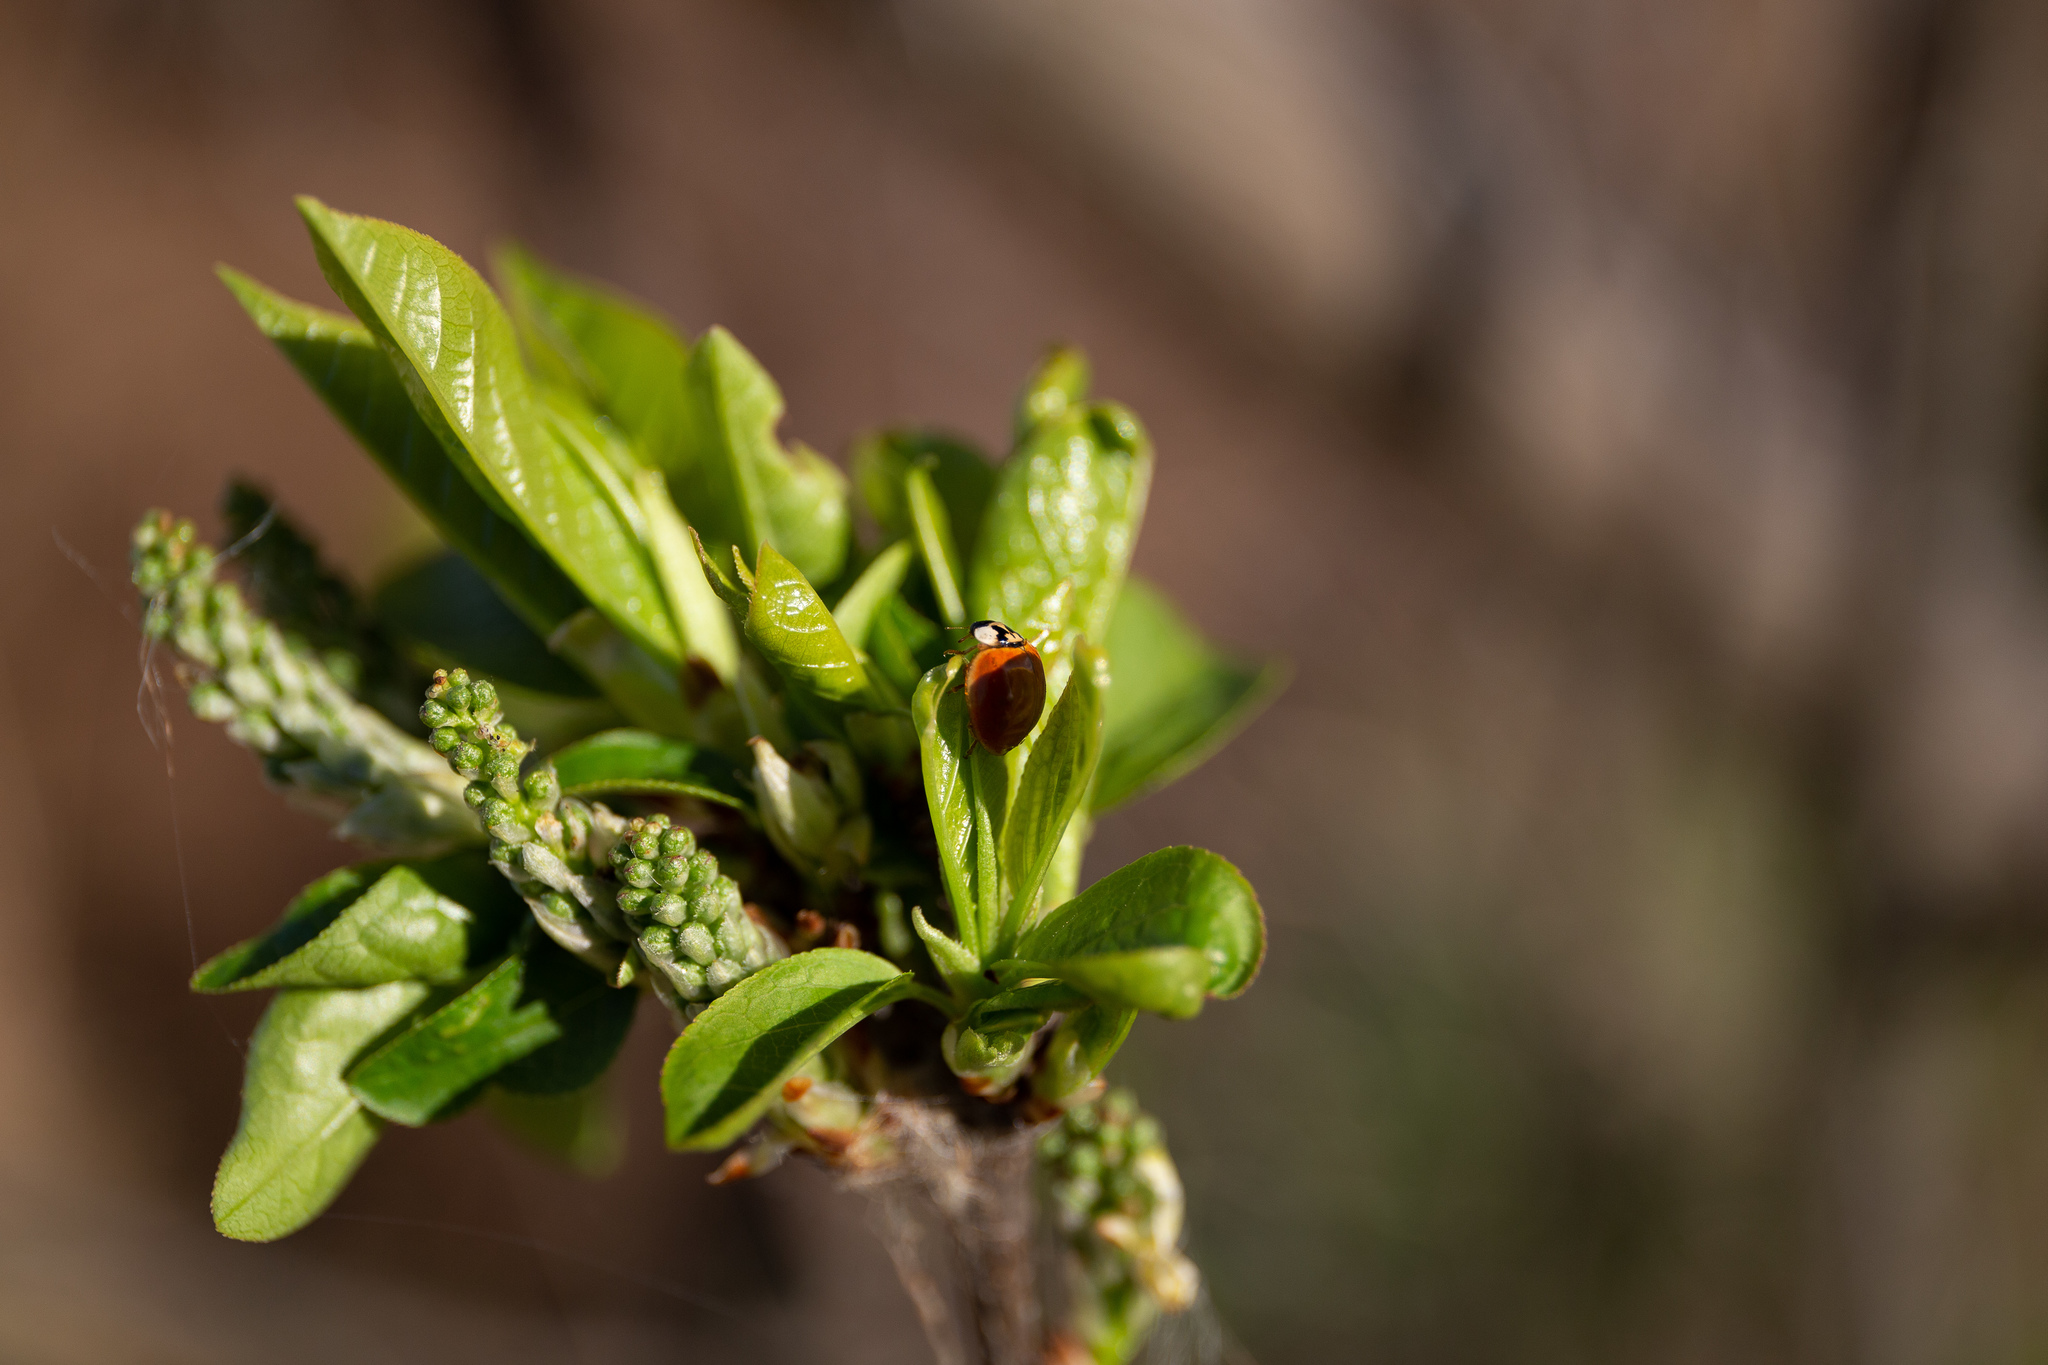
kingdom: Animalia
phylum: Arthropoda
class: Insecta
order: Coleoptera
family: Coccinellidae
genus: Harmonia
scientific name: Harmonia axyridis
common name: Harlequin ladybird
